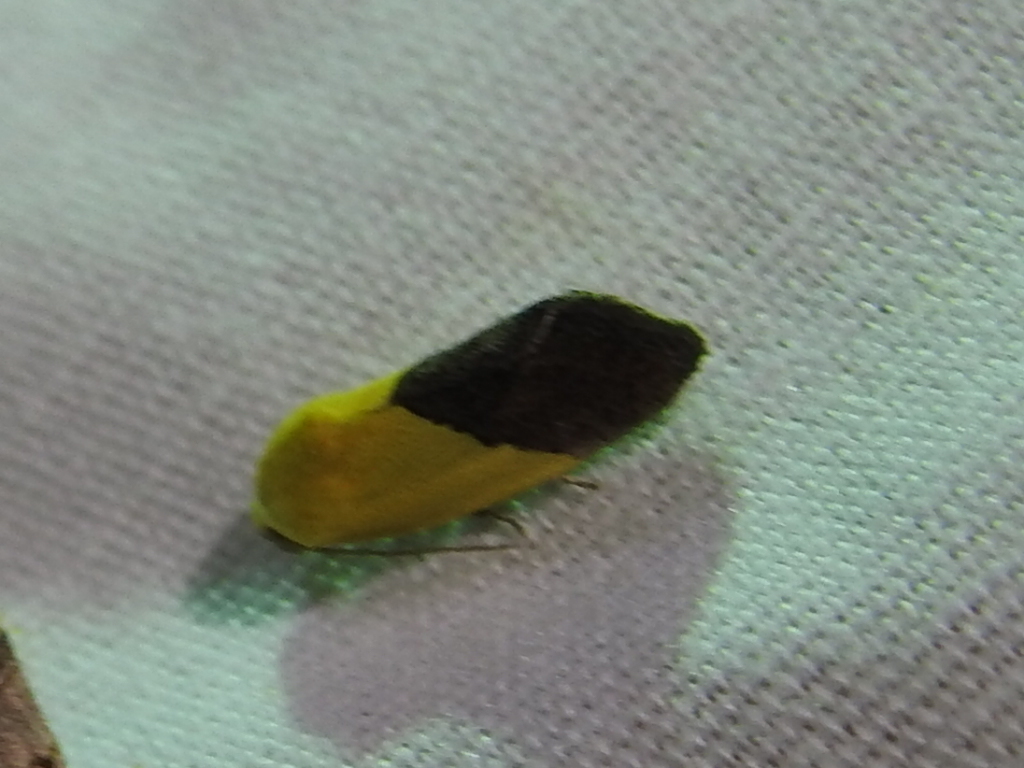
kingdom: Animalia
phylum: Arthropoda
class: Insecta
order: Lepidoptera
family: Noctuidae
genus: Acontia
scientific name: Acontia semiflava
